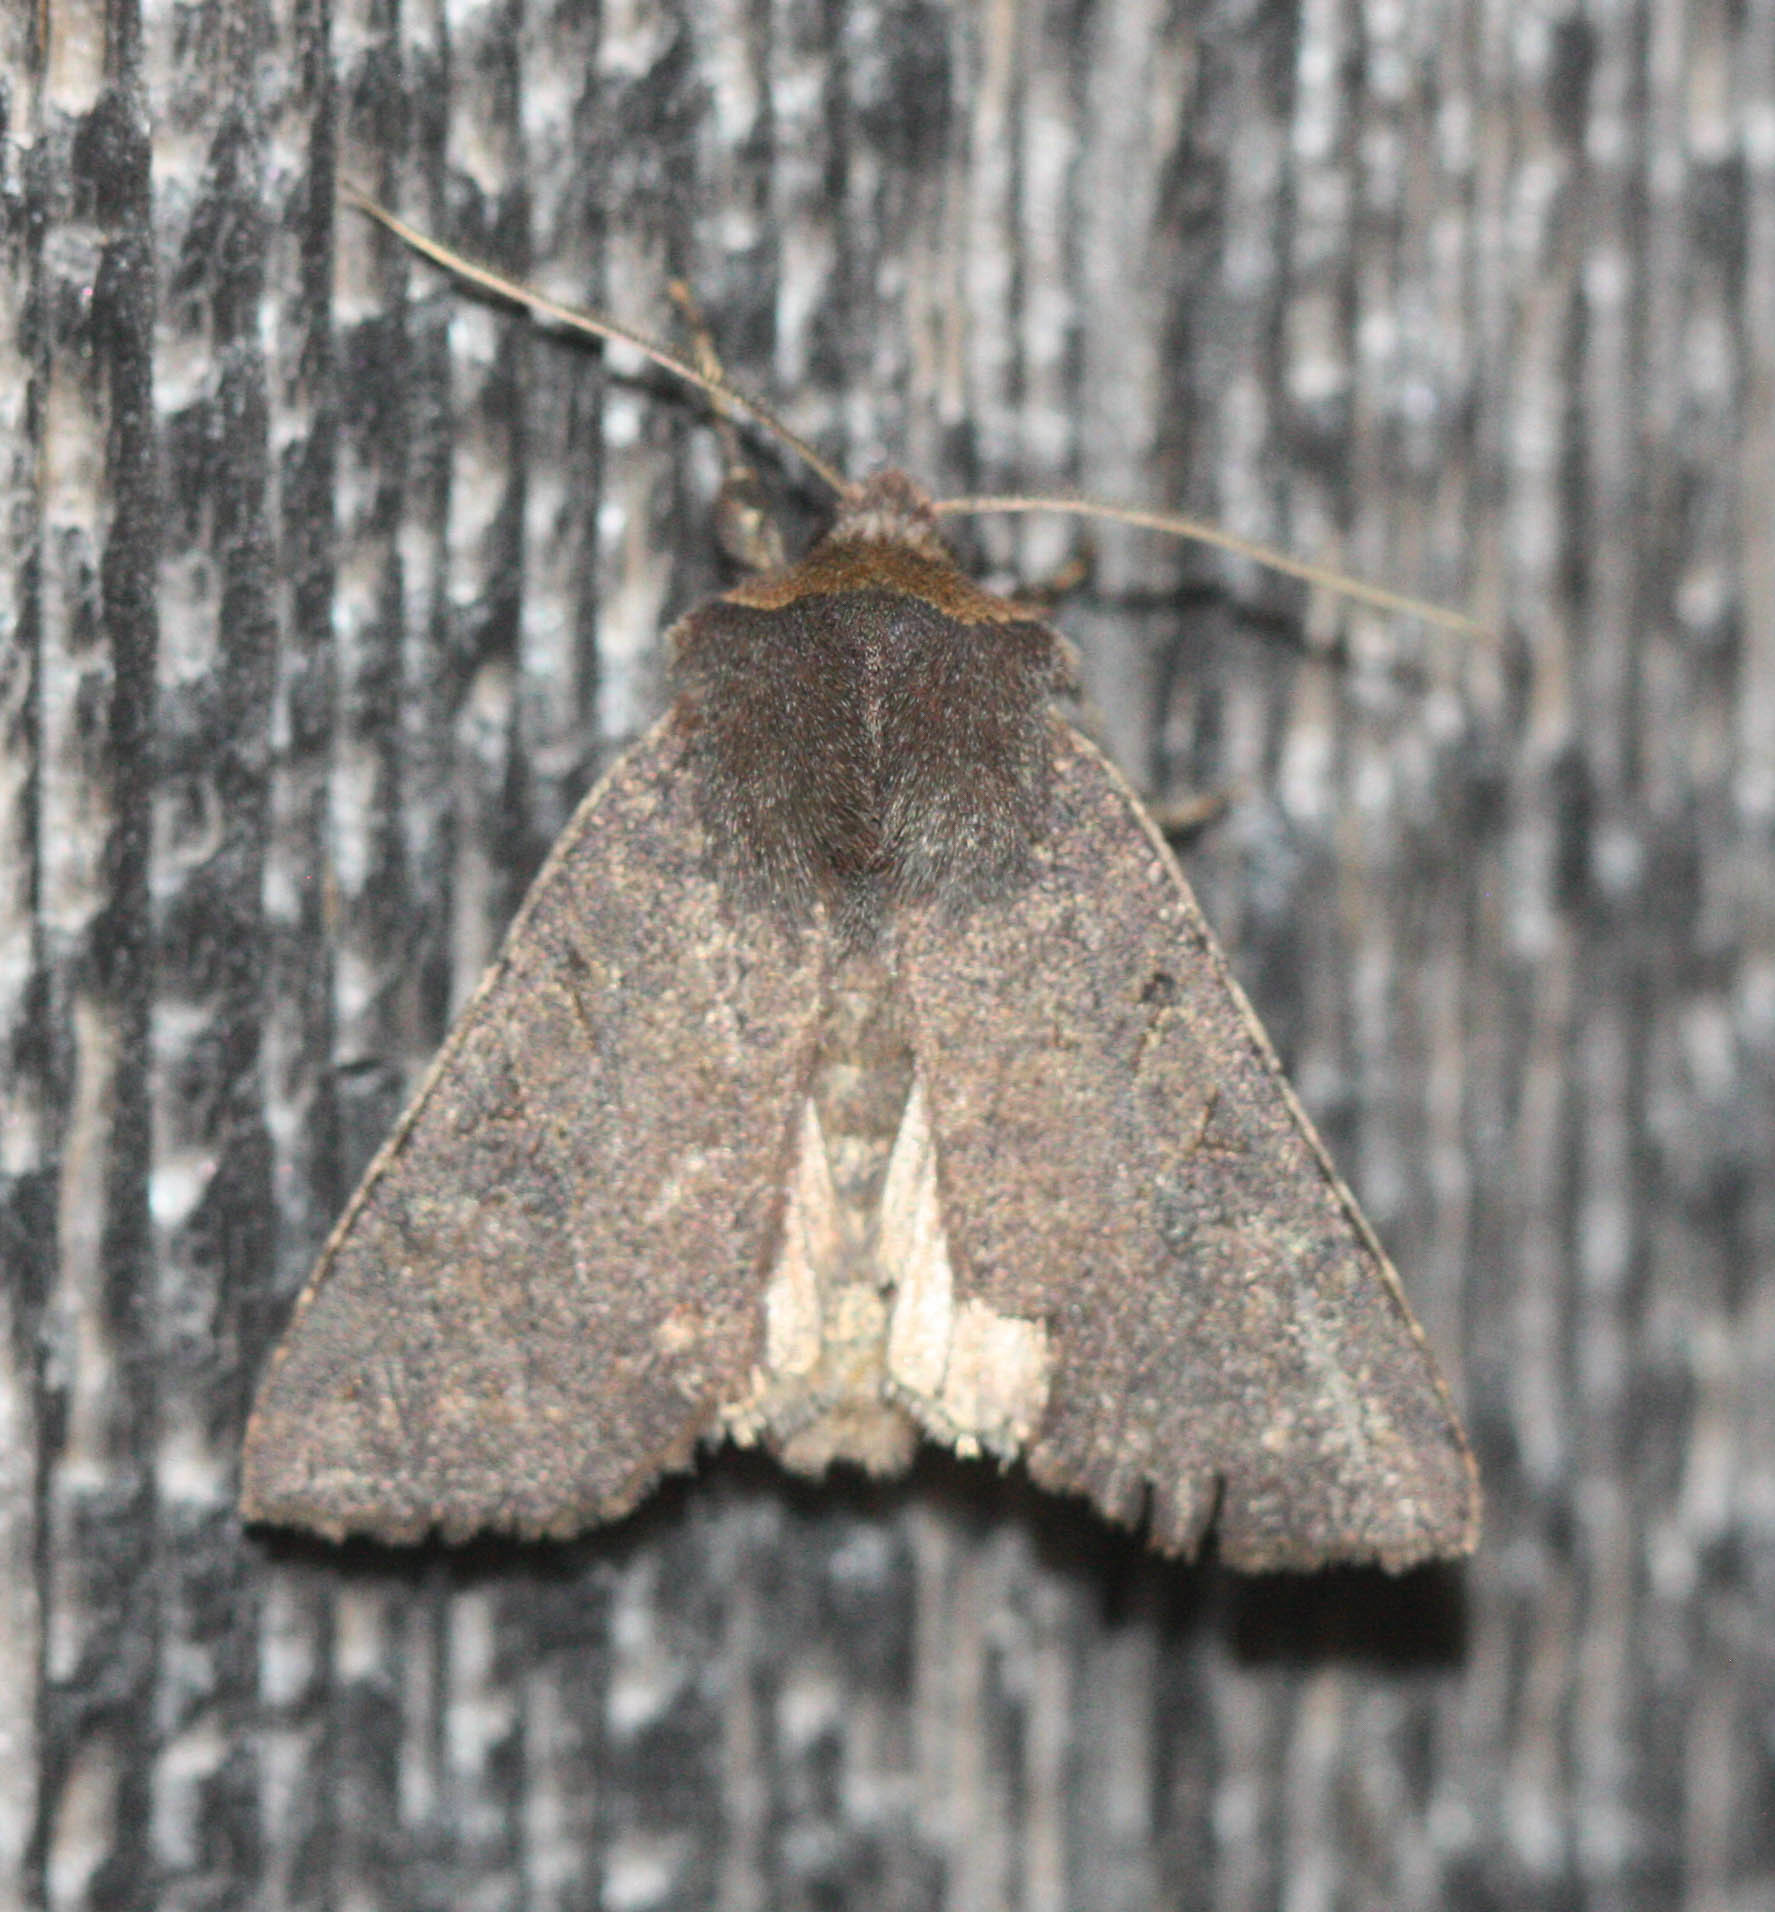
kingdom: Animalia
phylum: Arthropoda
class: Insecta
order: Lepidoptera
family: Noctuidae
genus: Orthosia
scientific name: Orthosia praeses
